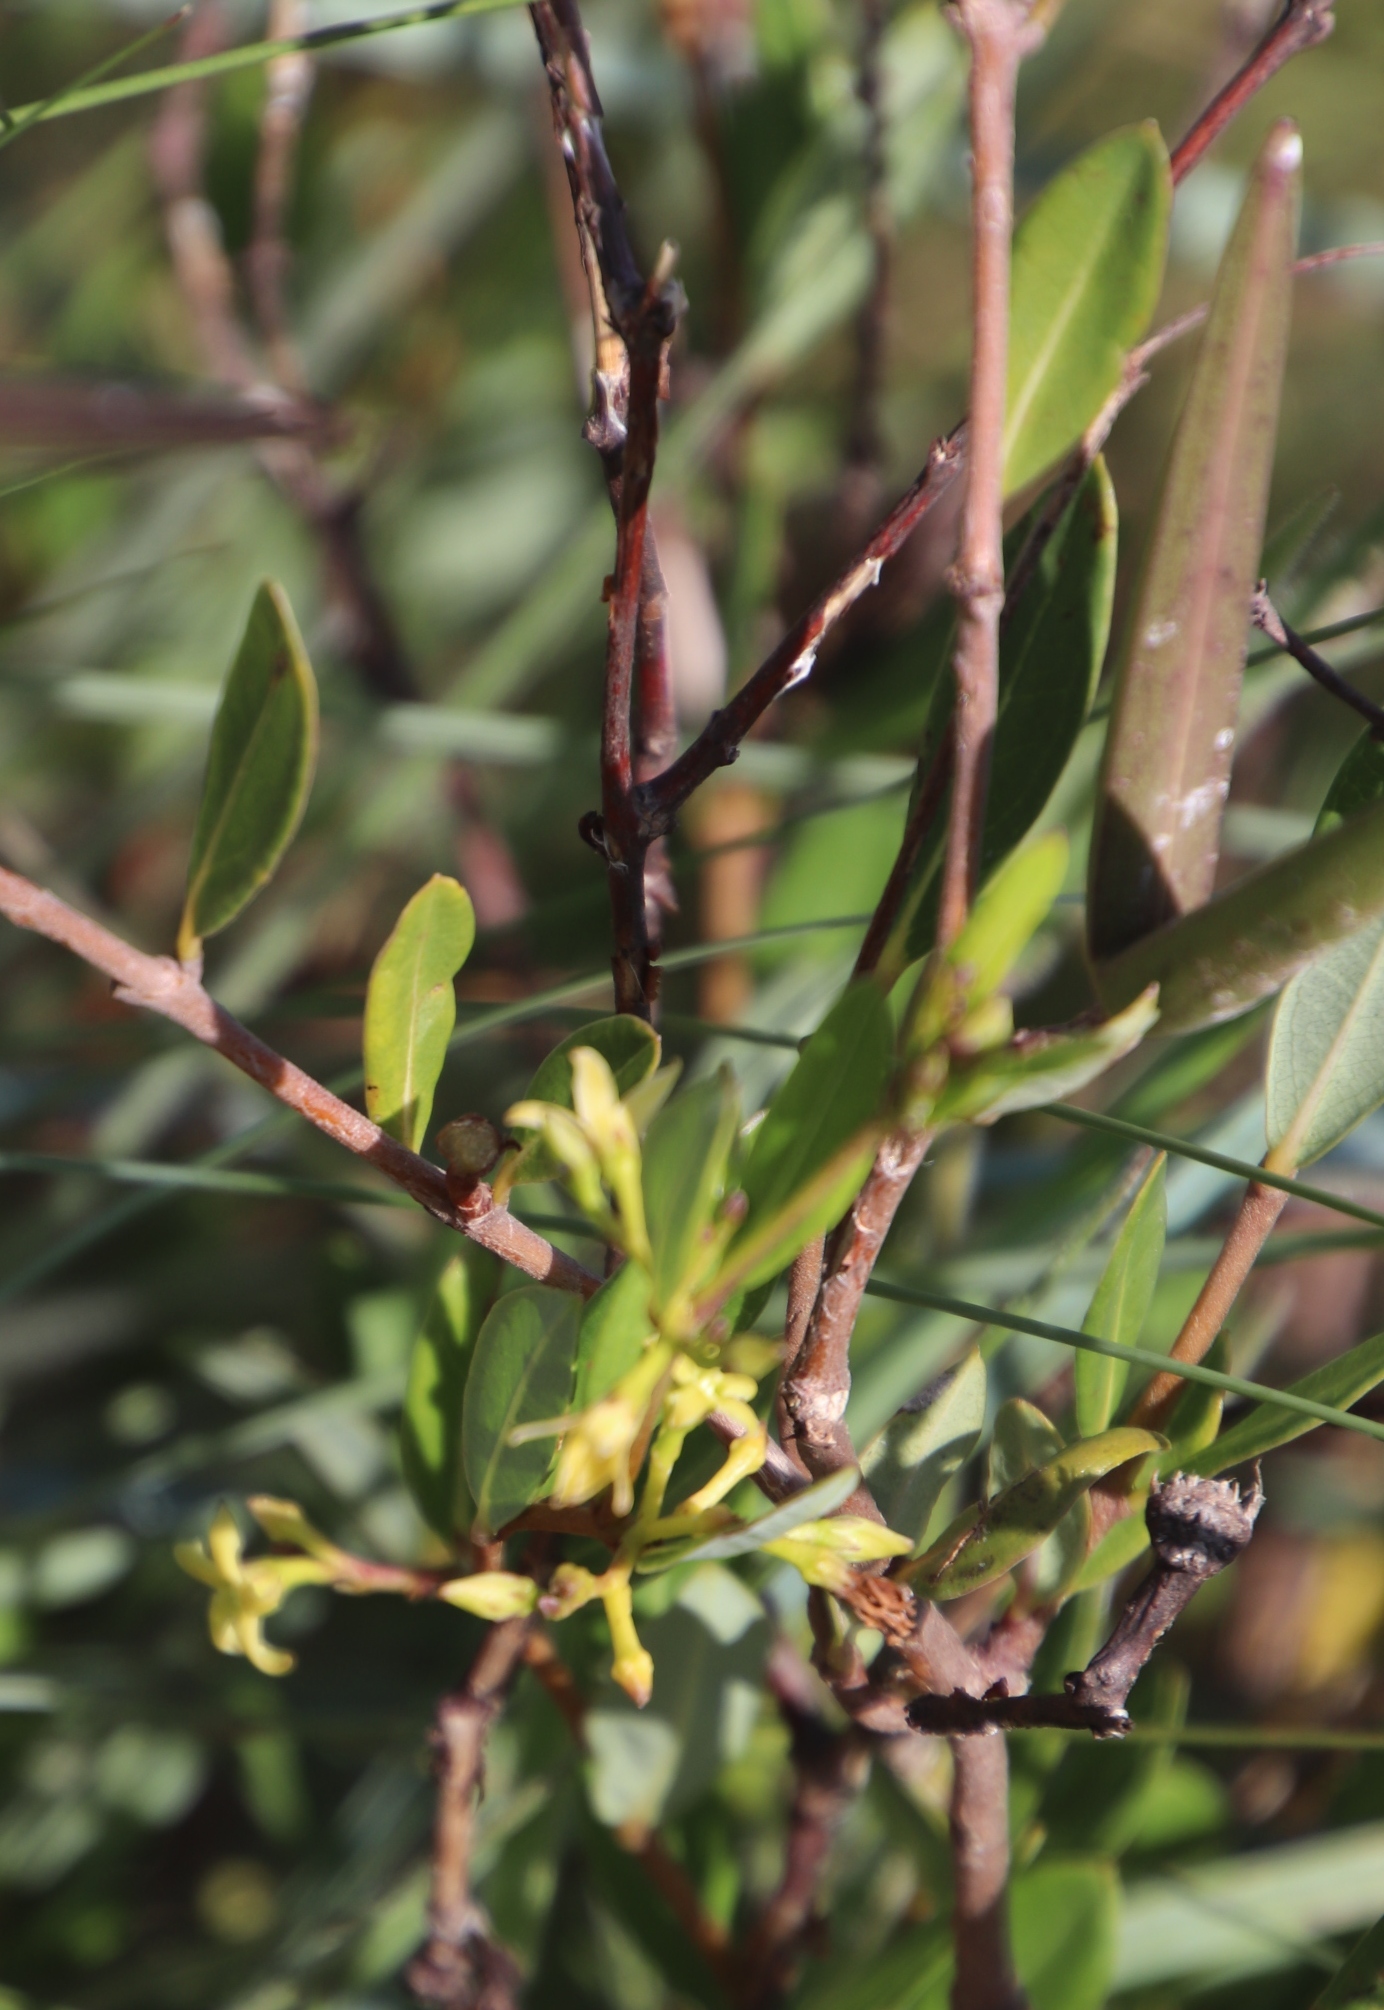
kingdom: Plantae
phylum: Tracheophyta
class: Magnoliopsida
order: Gentianales
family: Apocynaceae
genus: Cryptolepis
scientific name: Cryptolepis oblongifolia
